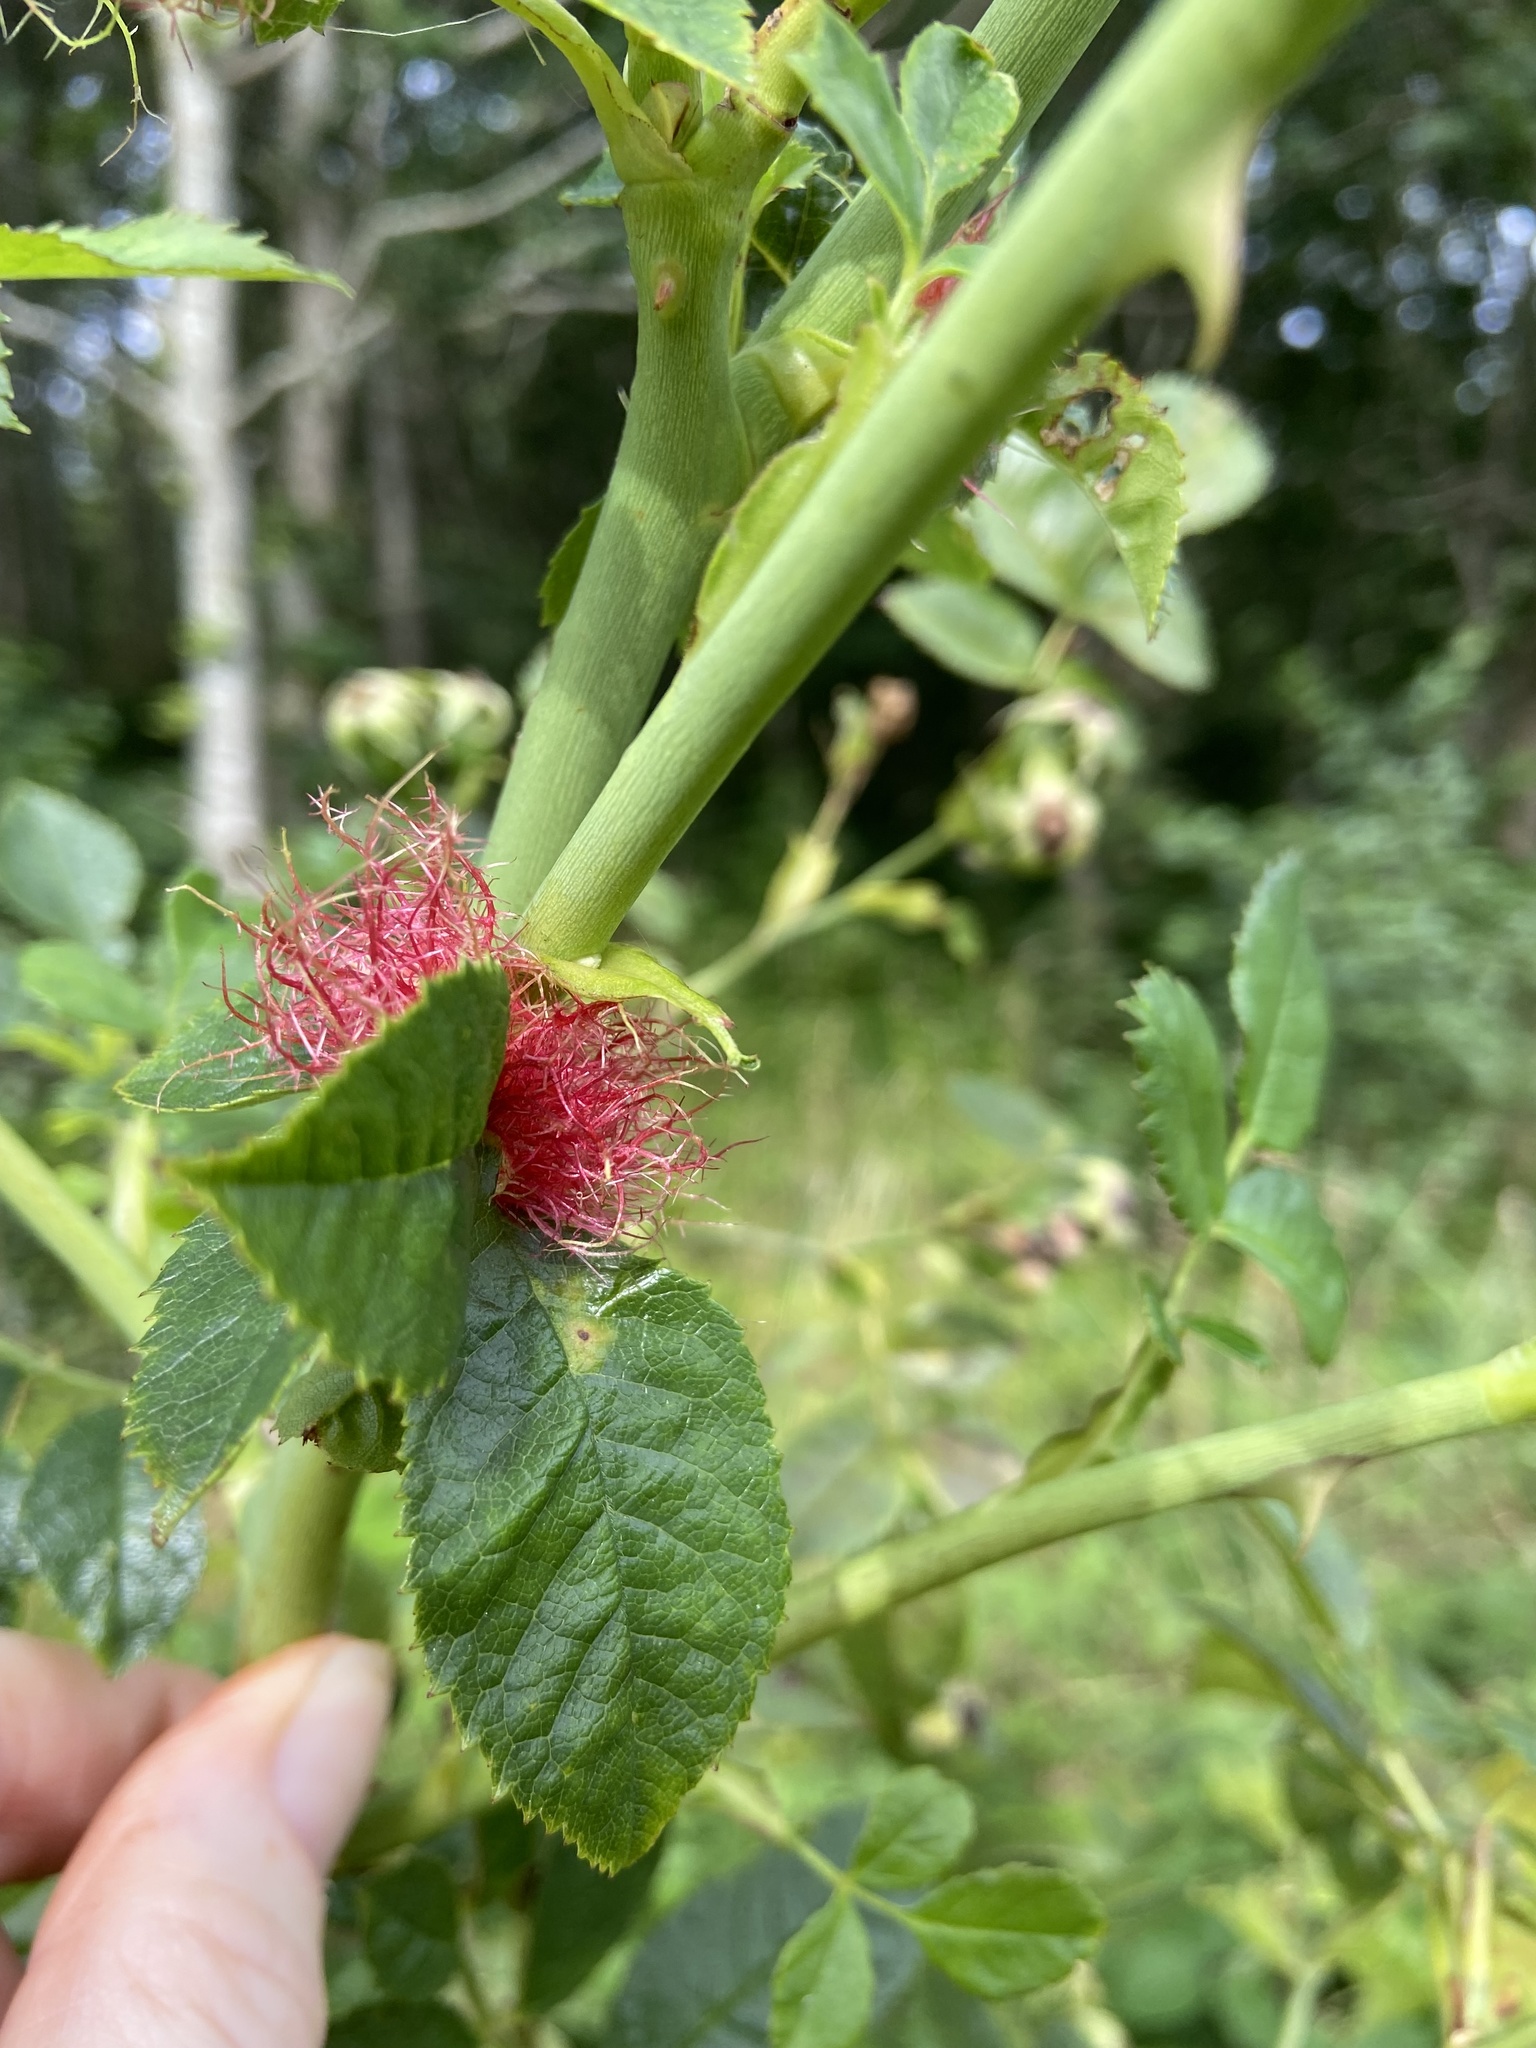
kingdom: Animalia
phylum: Arthropoda
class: Insecta
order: Hymenoptera
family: Cynipidae
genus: Diplolepis
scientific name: Diplolepis rosae
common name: Bedeguar gall
